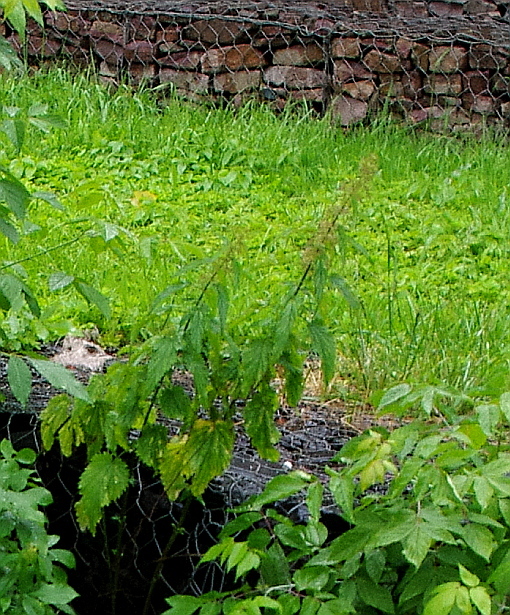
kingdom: Plantae
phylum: Tracheophyta
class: Magnoliopsida
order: Rosales
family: Urticaceae
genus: Urtica
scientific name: Urtica dioica
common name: Common nettle
